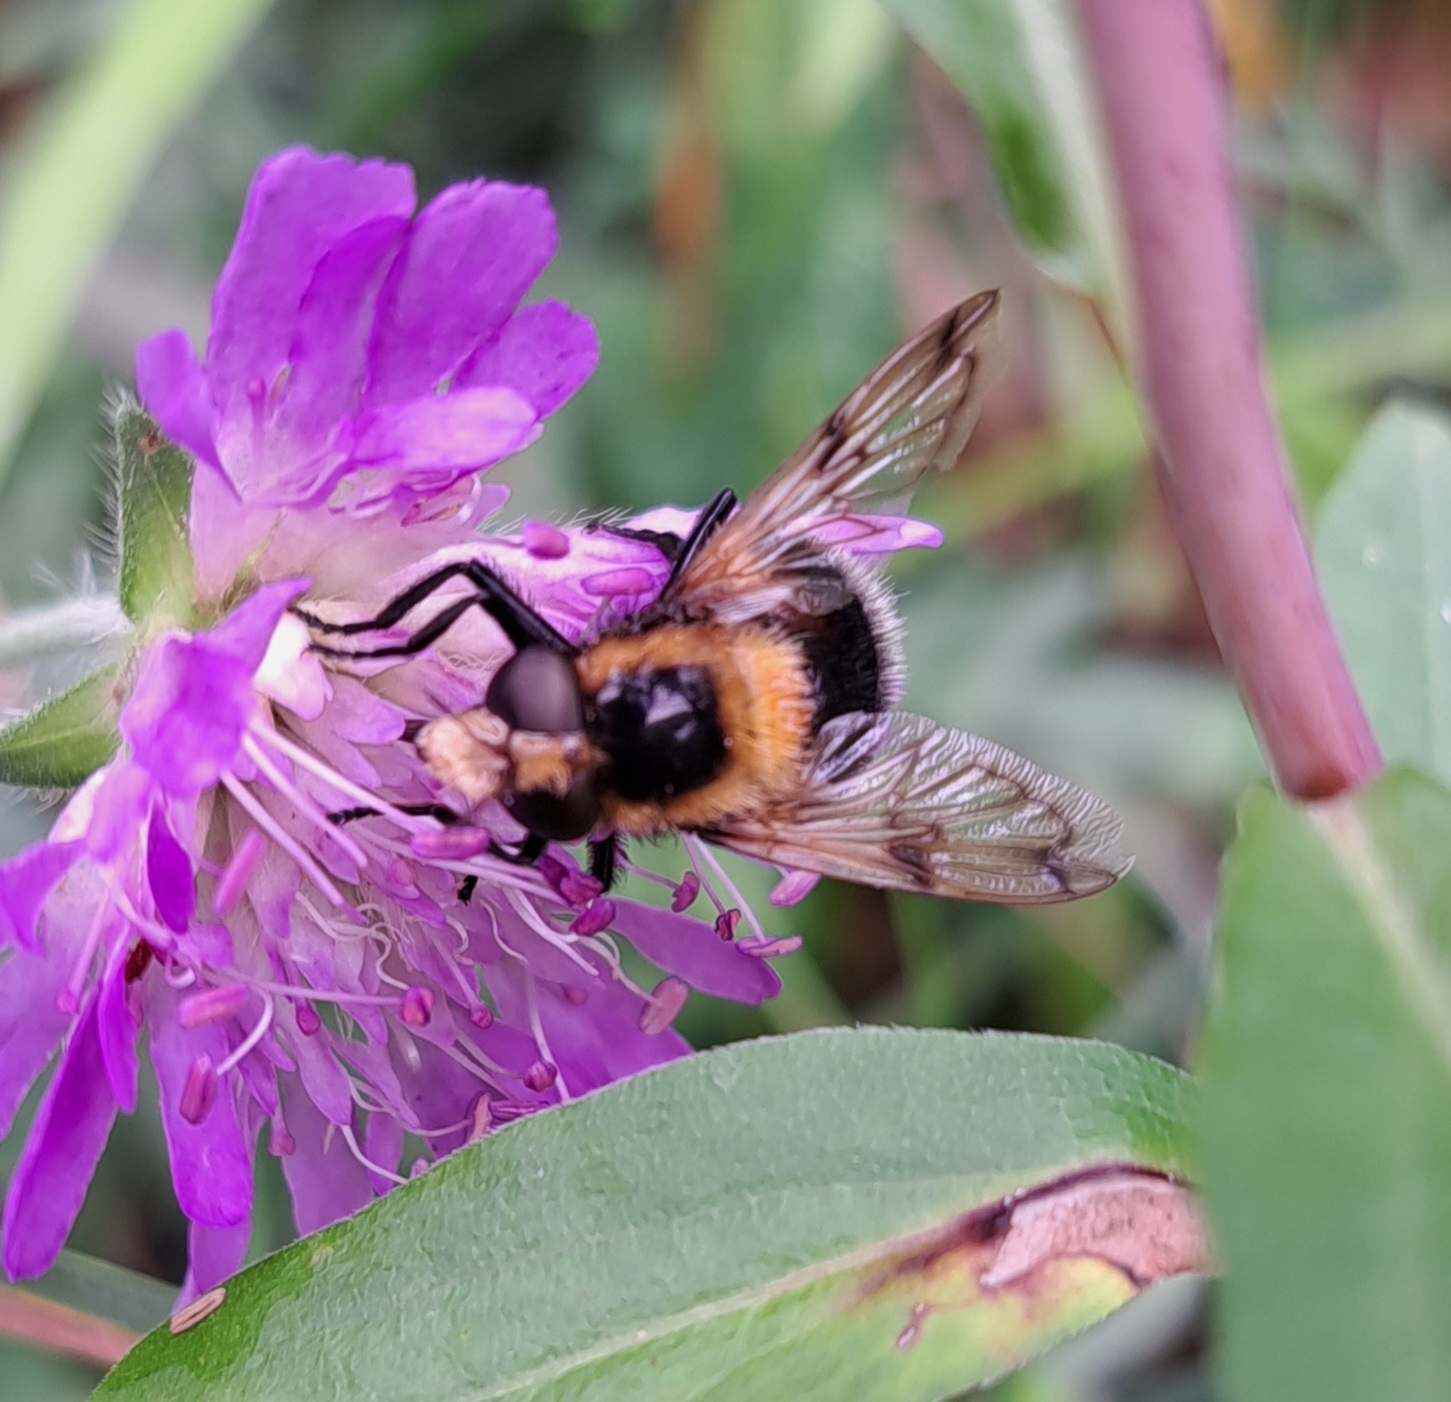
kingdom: Animalia
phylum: Arthropoda
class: Insecta
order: Diptera
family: Syrphidae
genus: Volucella
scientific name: Volucella bombylans
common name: Bumble bee hover fly
